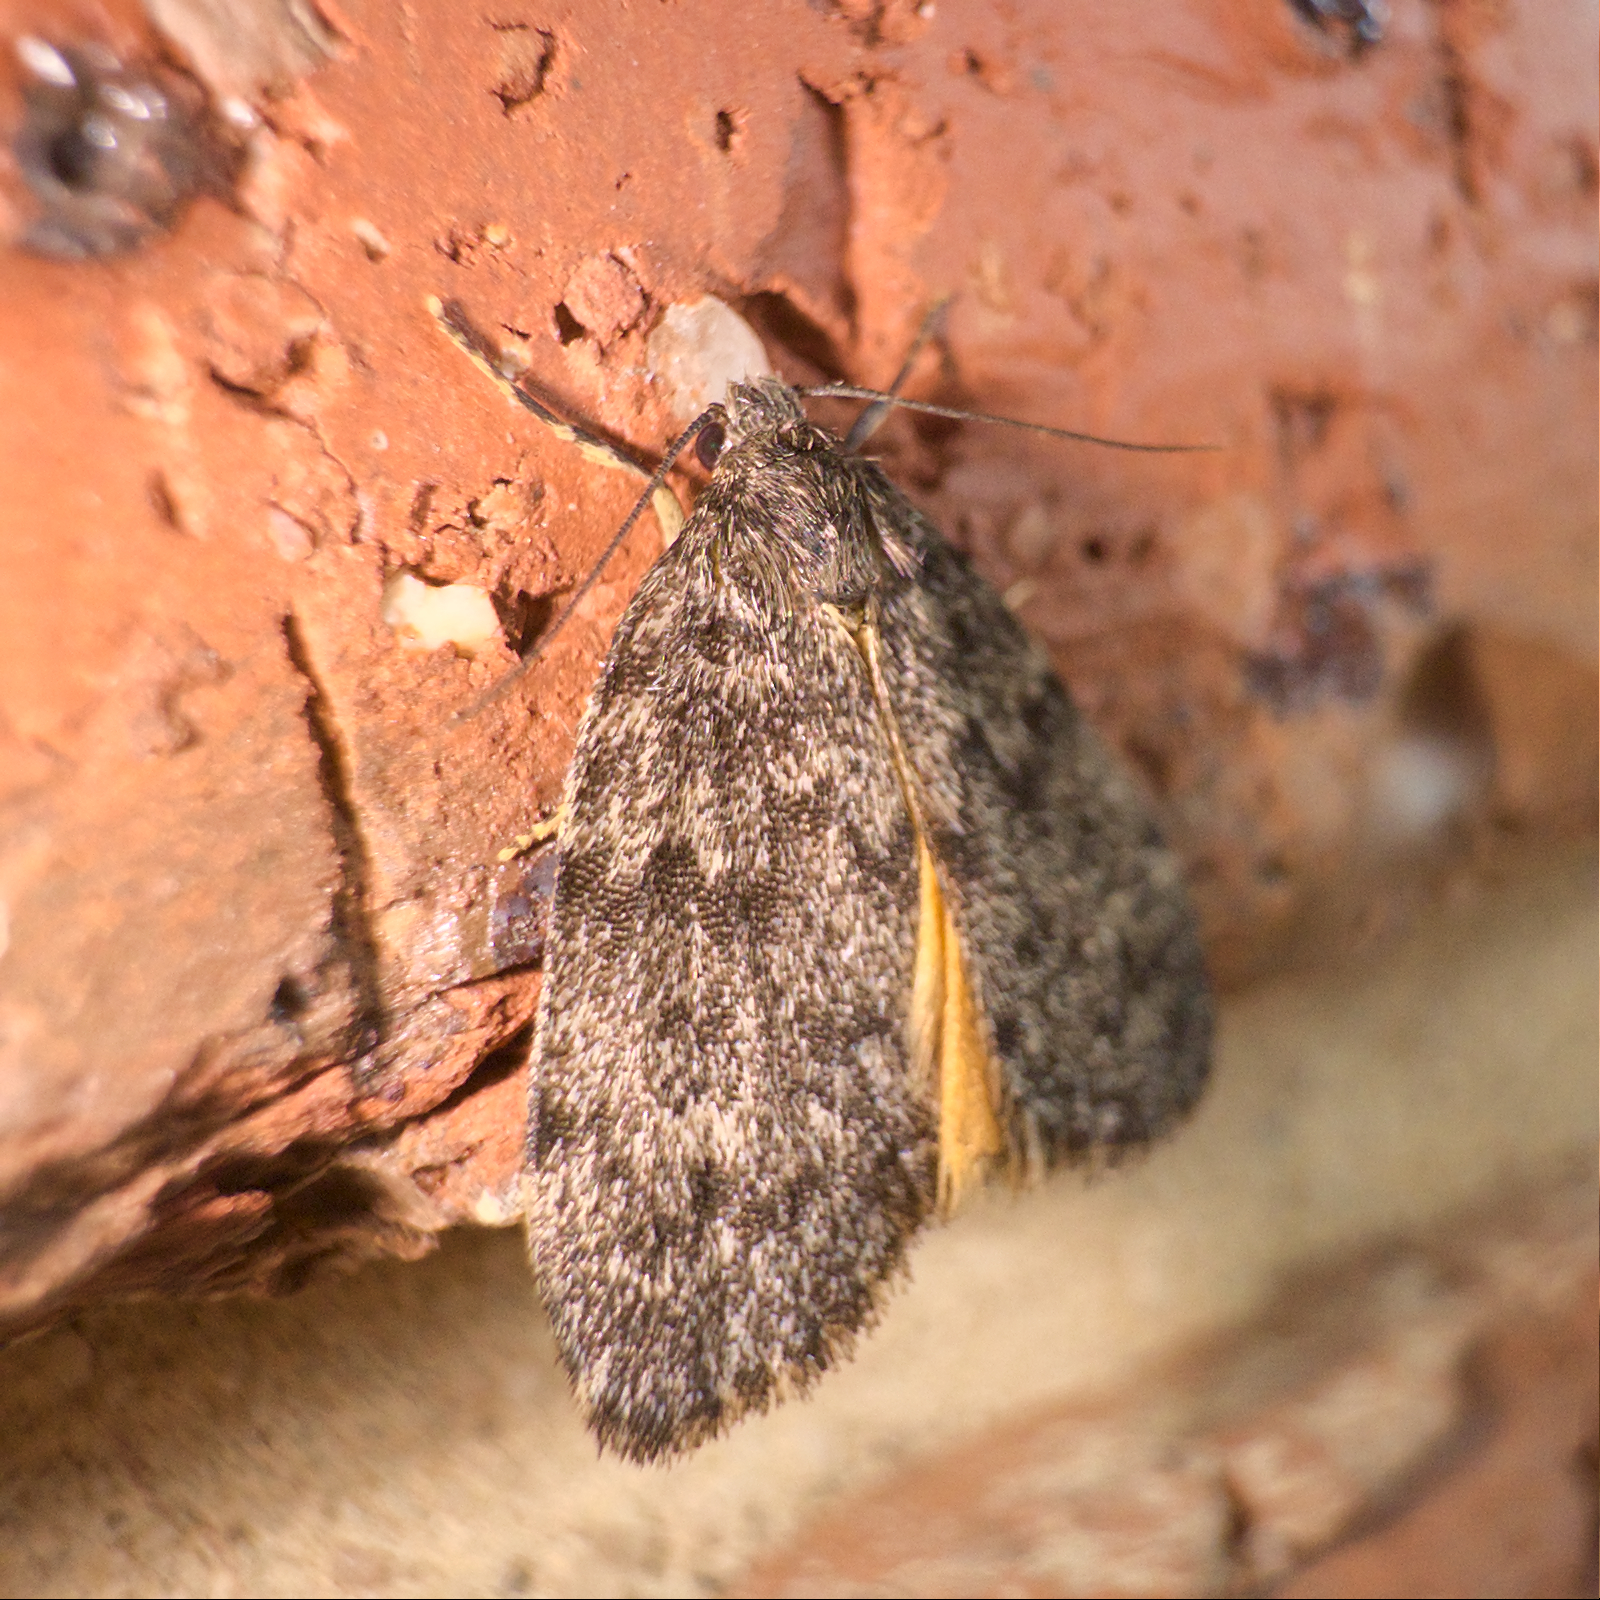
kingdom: Animalia
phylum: Arthropoda
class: Insecta
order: Lepidoptera
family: Erebidae
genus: Halone
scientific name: Halone consolatrix
